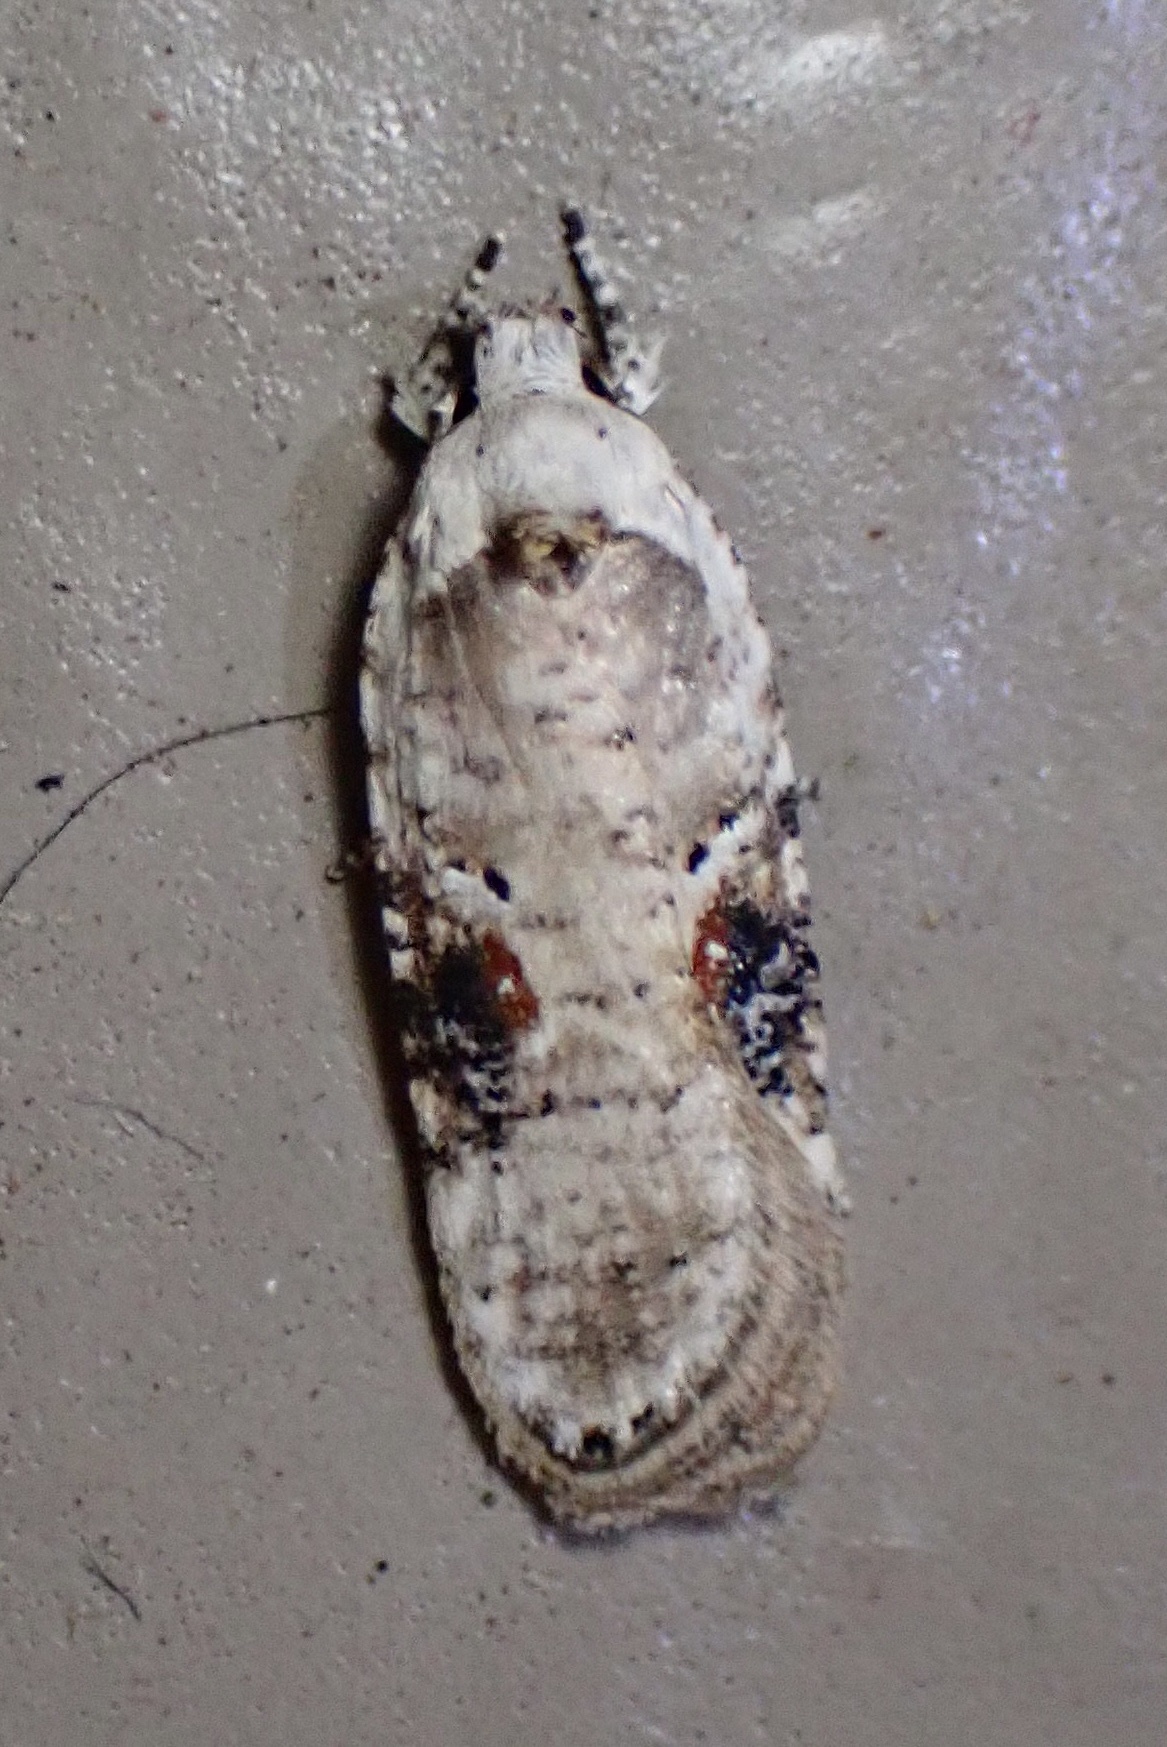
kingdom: Animalia
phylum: Arthropoda
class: Insecta
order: Lepidoptera
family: Depressariidae
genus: Agonopterix
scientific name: Agonopterix alstroemeriana
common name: Moth
